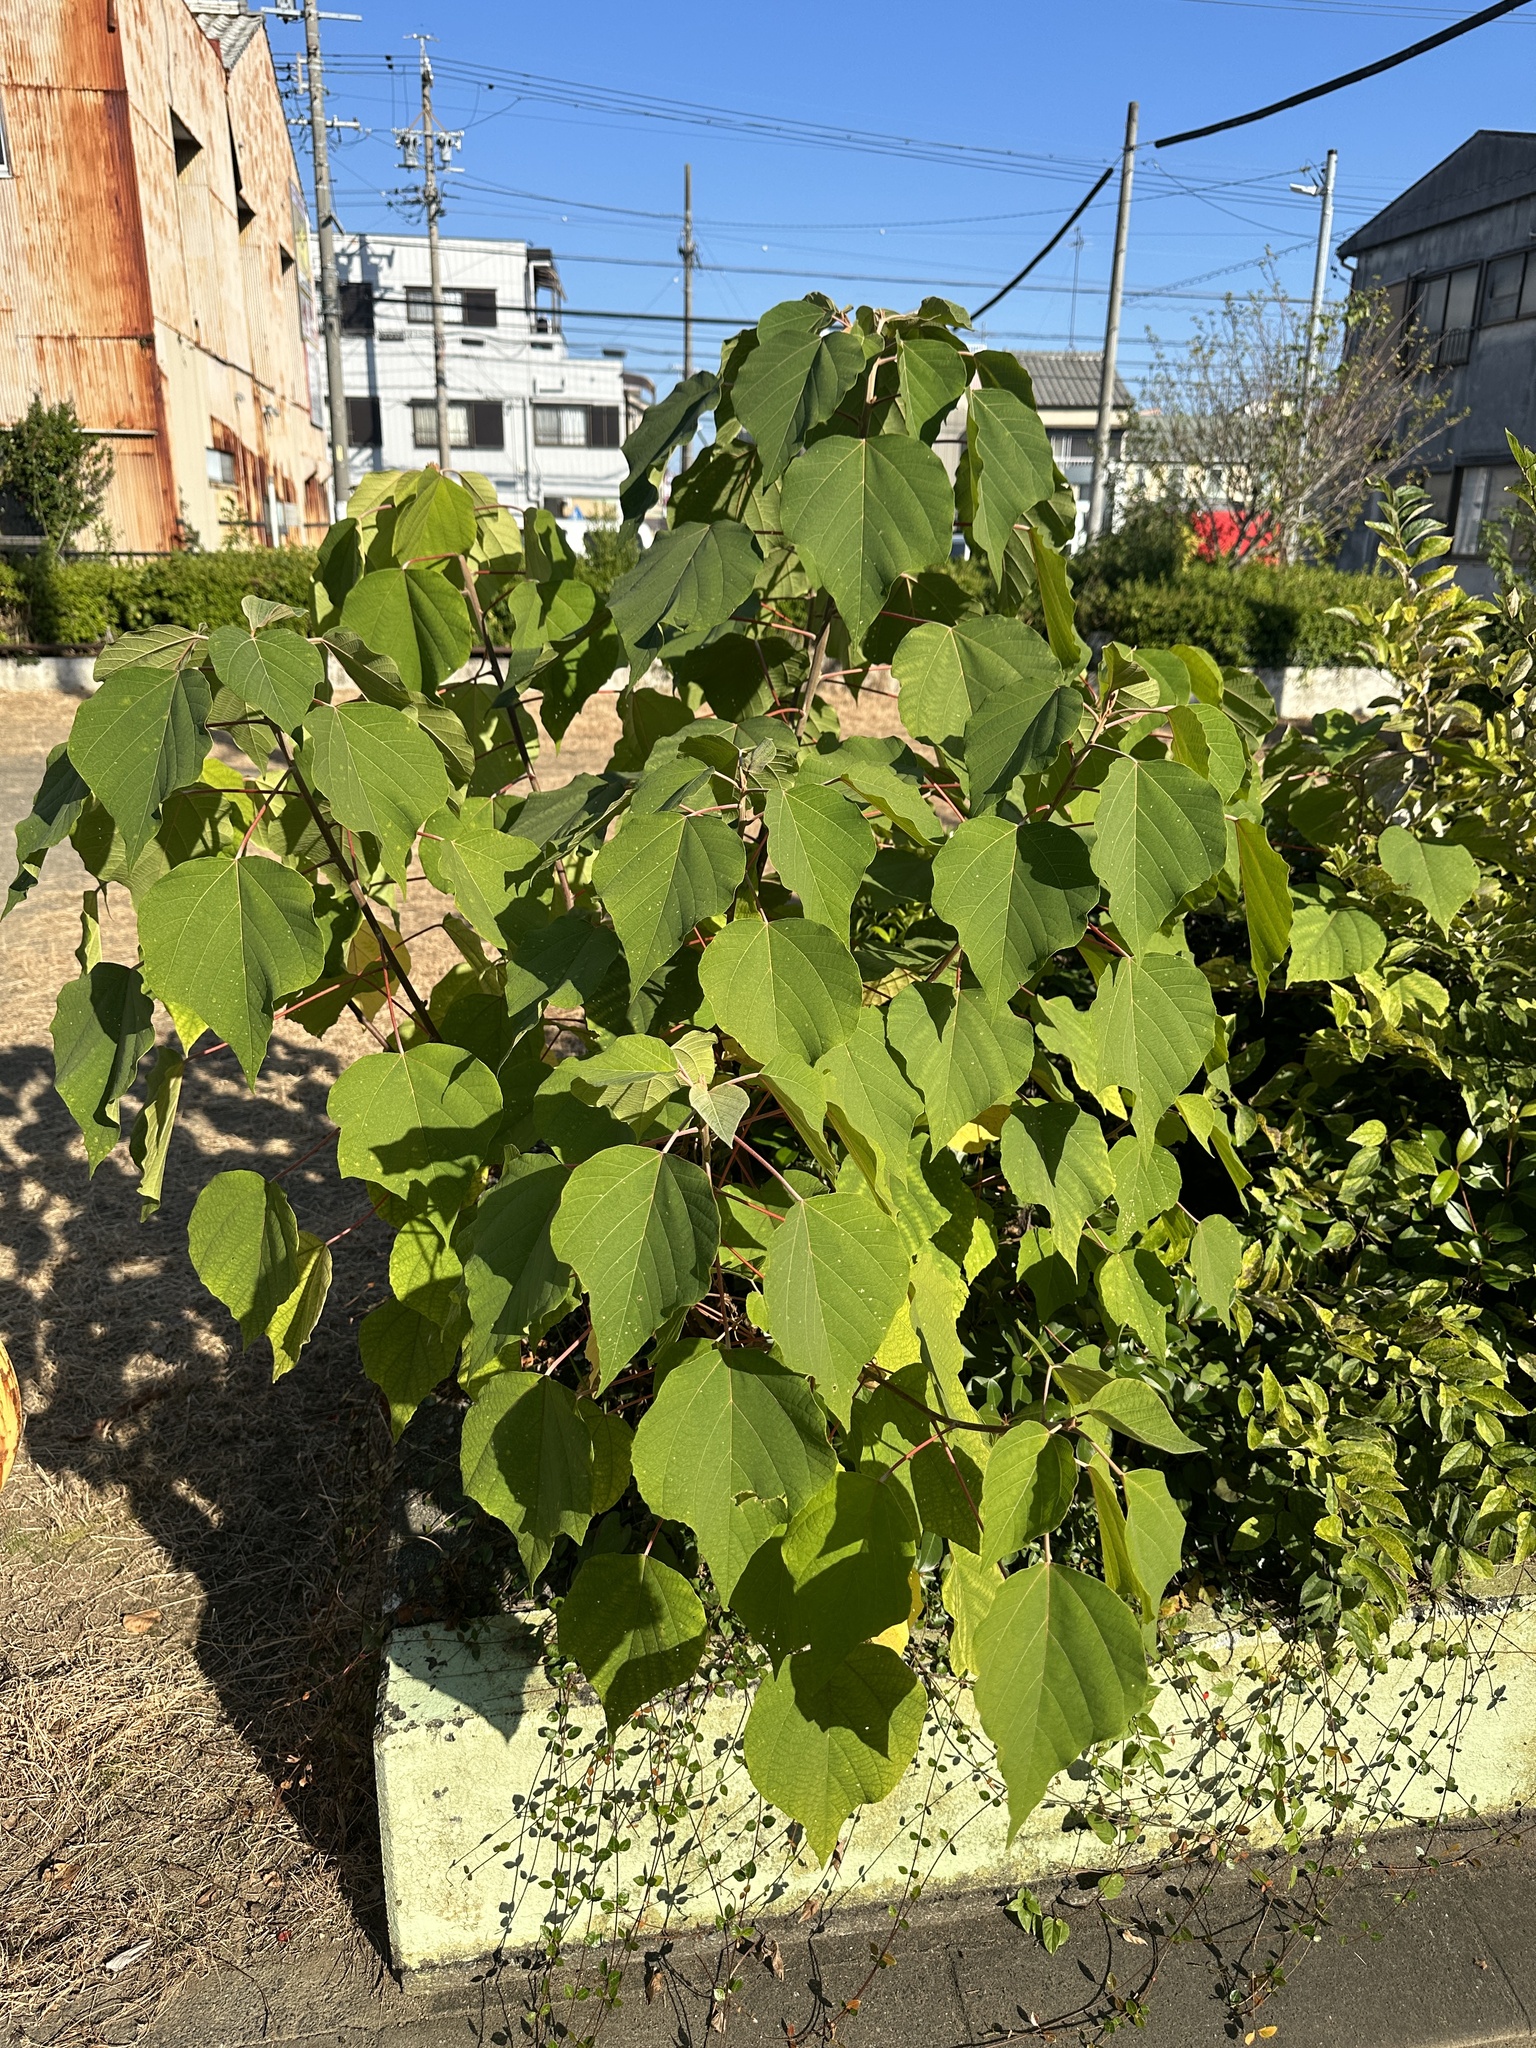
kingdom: Plantae
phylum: Tracheophyta
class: Magnoliopsida
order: Malpighiales
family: Euphorbiaceae
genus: Mallotus
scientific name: Mallotus japonicus
